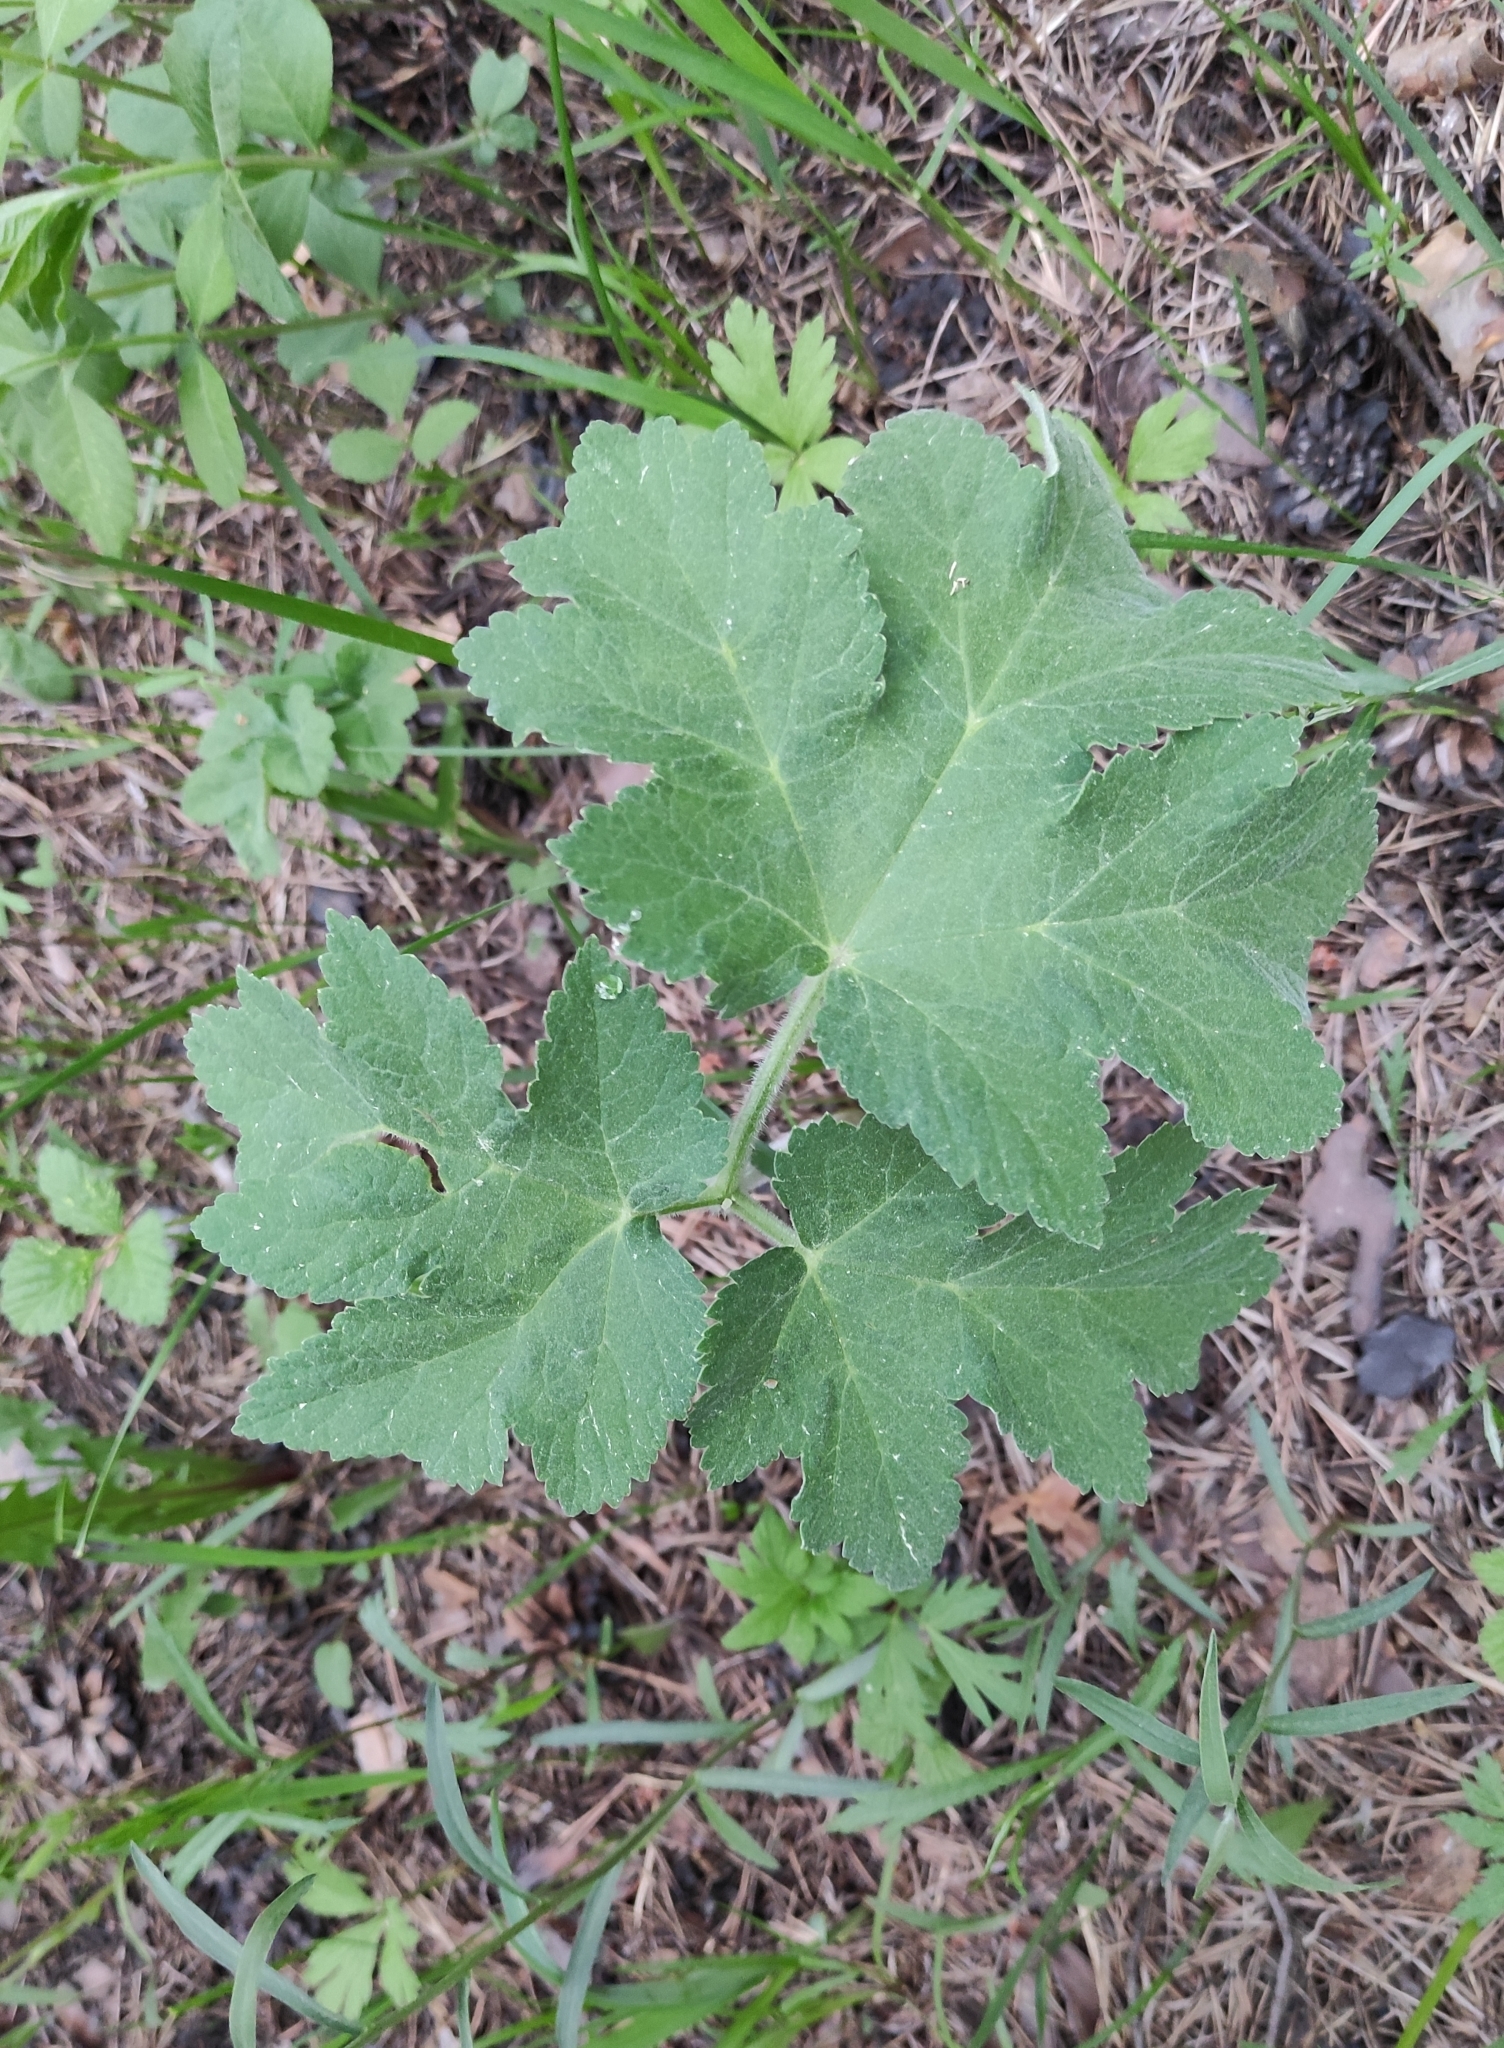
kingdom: Plantae
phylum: Tracheophyta
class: Magnoliopsida
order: Apiales
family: Apiaceae
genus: Heracleum
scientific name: Heracleum dissectum
